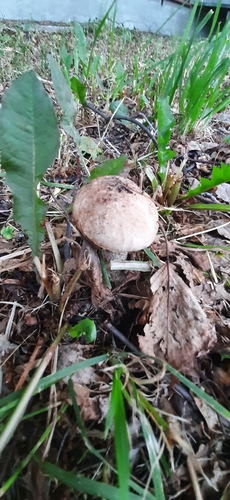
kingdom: Fungi
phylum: Basidiomycota
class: Agaricomycetes
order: Boletales
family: Boletaceae
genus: Leccinum
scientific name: Leccinum scabrum
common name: Blushing bolete
